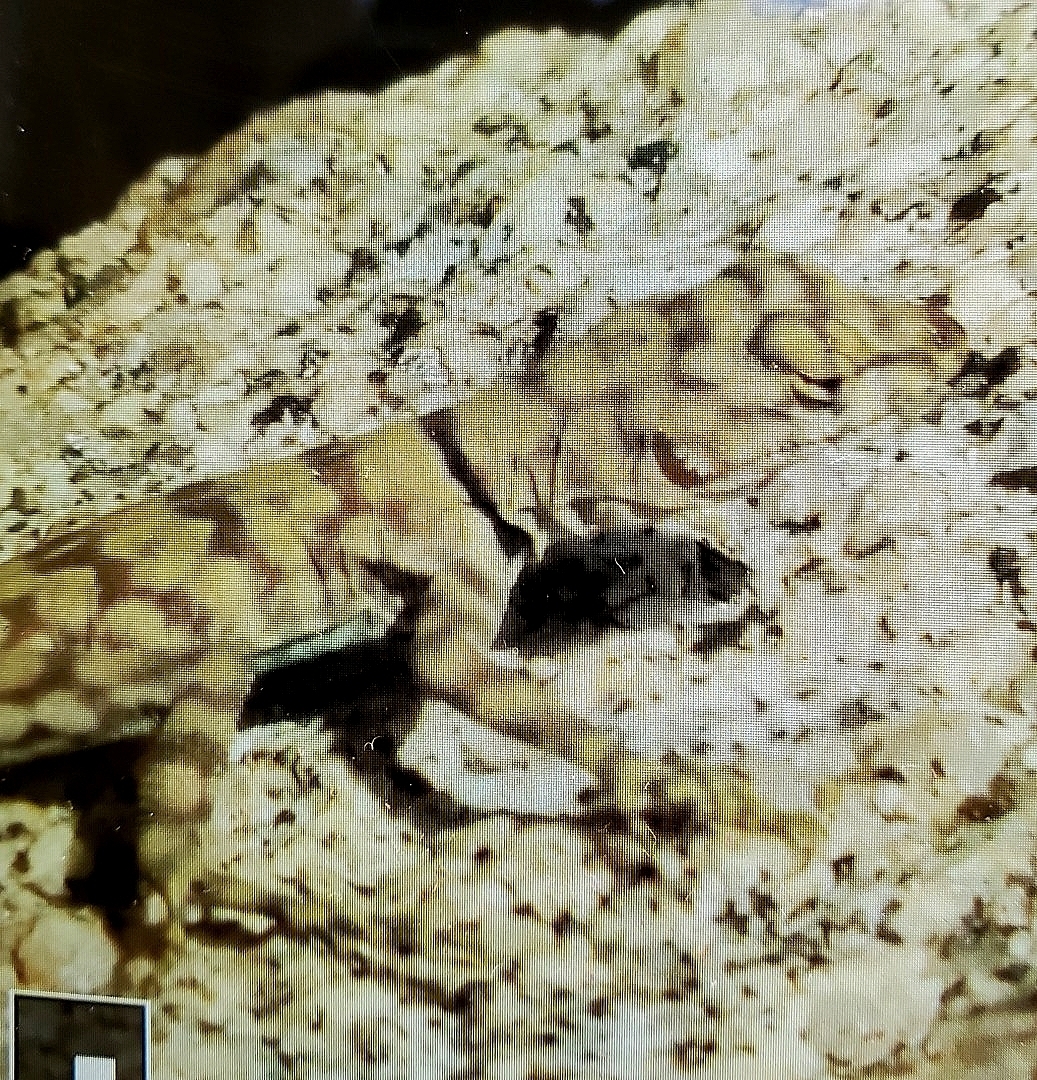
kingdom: Animalia
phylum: Chordata
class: Squamata
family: Phrynosomatidae
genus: Petrosaurus
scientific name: Petrosaurus mearnsi
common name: Banded rock lizard
